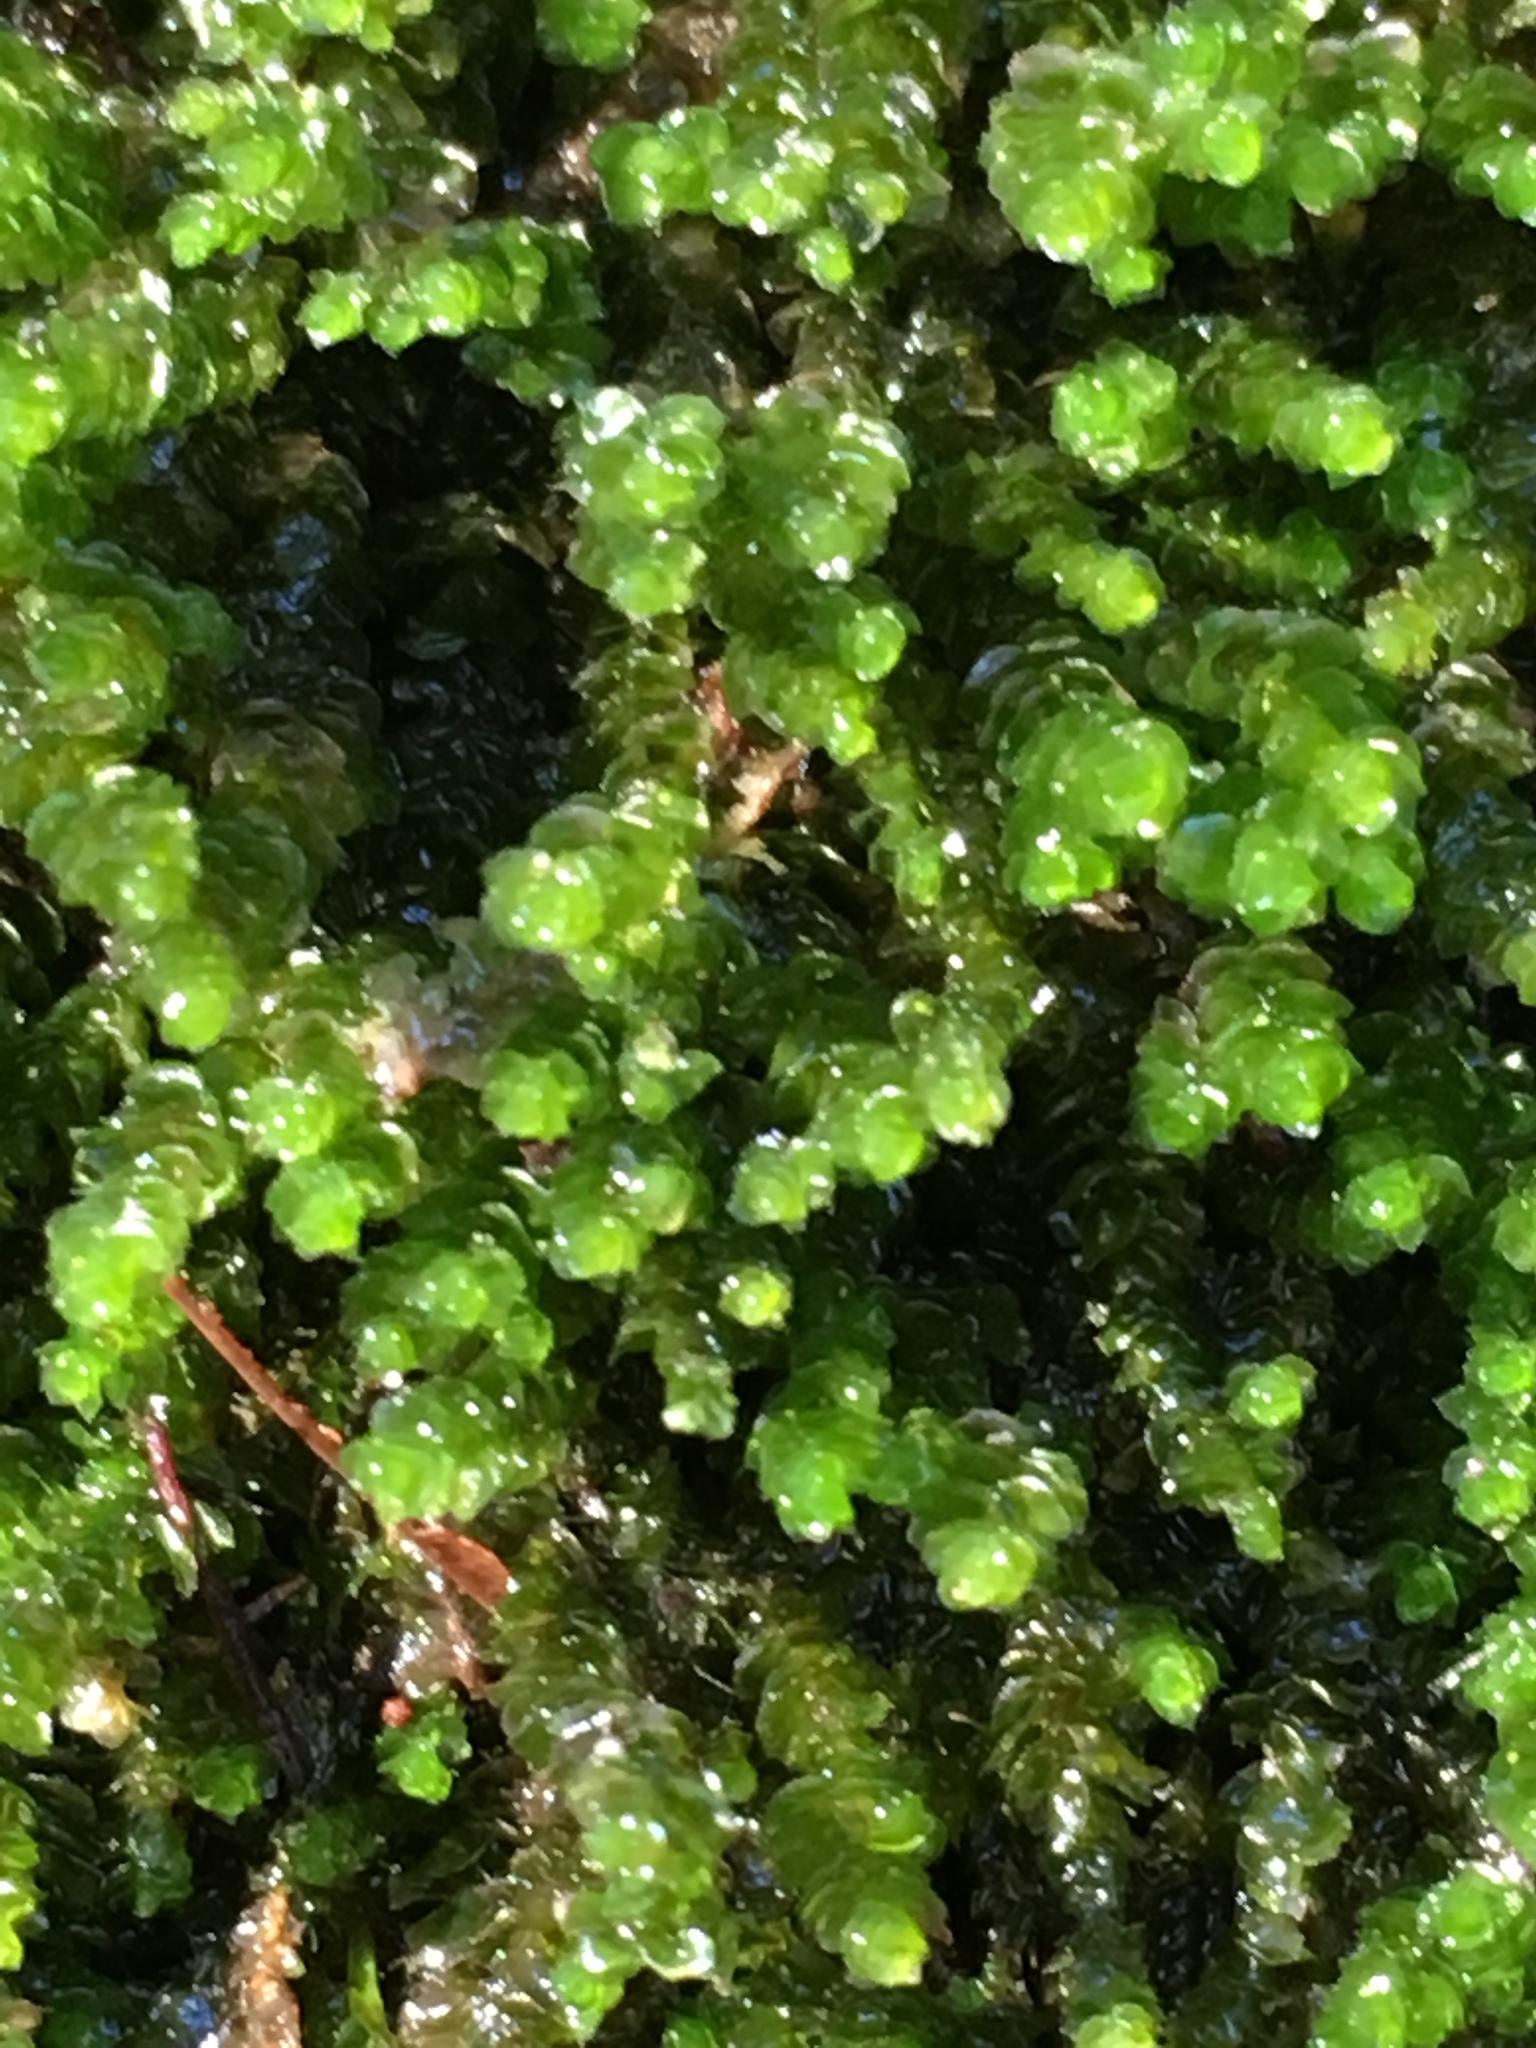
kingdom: Plantae
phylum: Marchantiophyta
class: Jungermanniopsida
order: Jungermanniales
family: Gymnomitriaceae
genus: Marsupella
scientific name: Marsupella emarginata
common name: Notched rustwort
